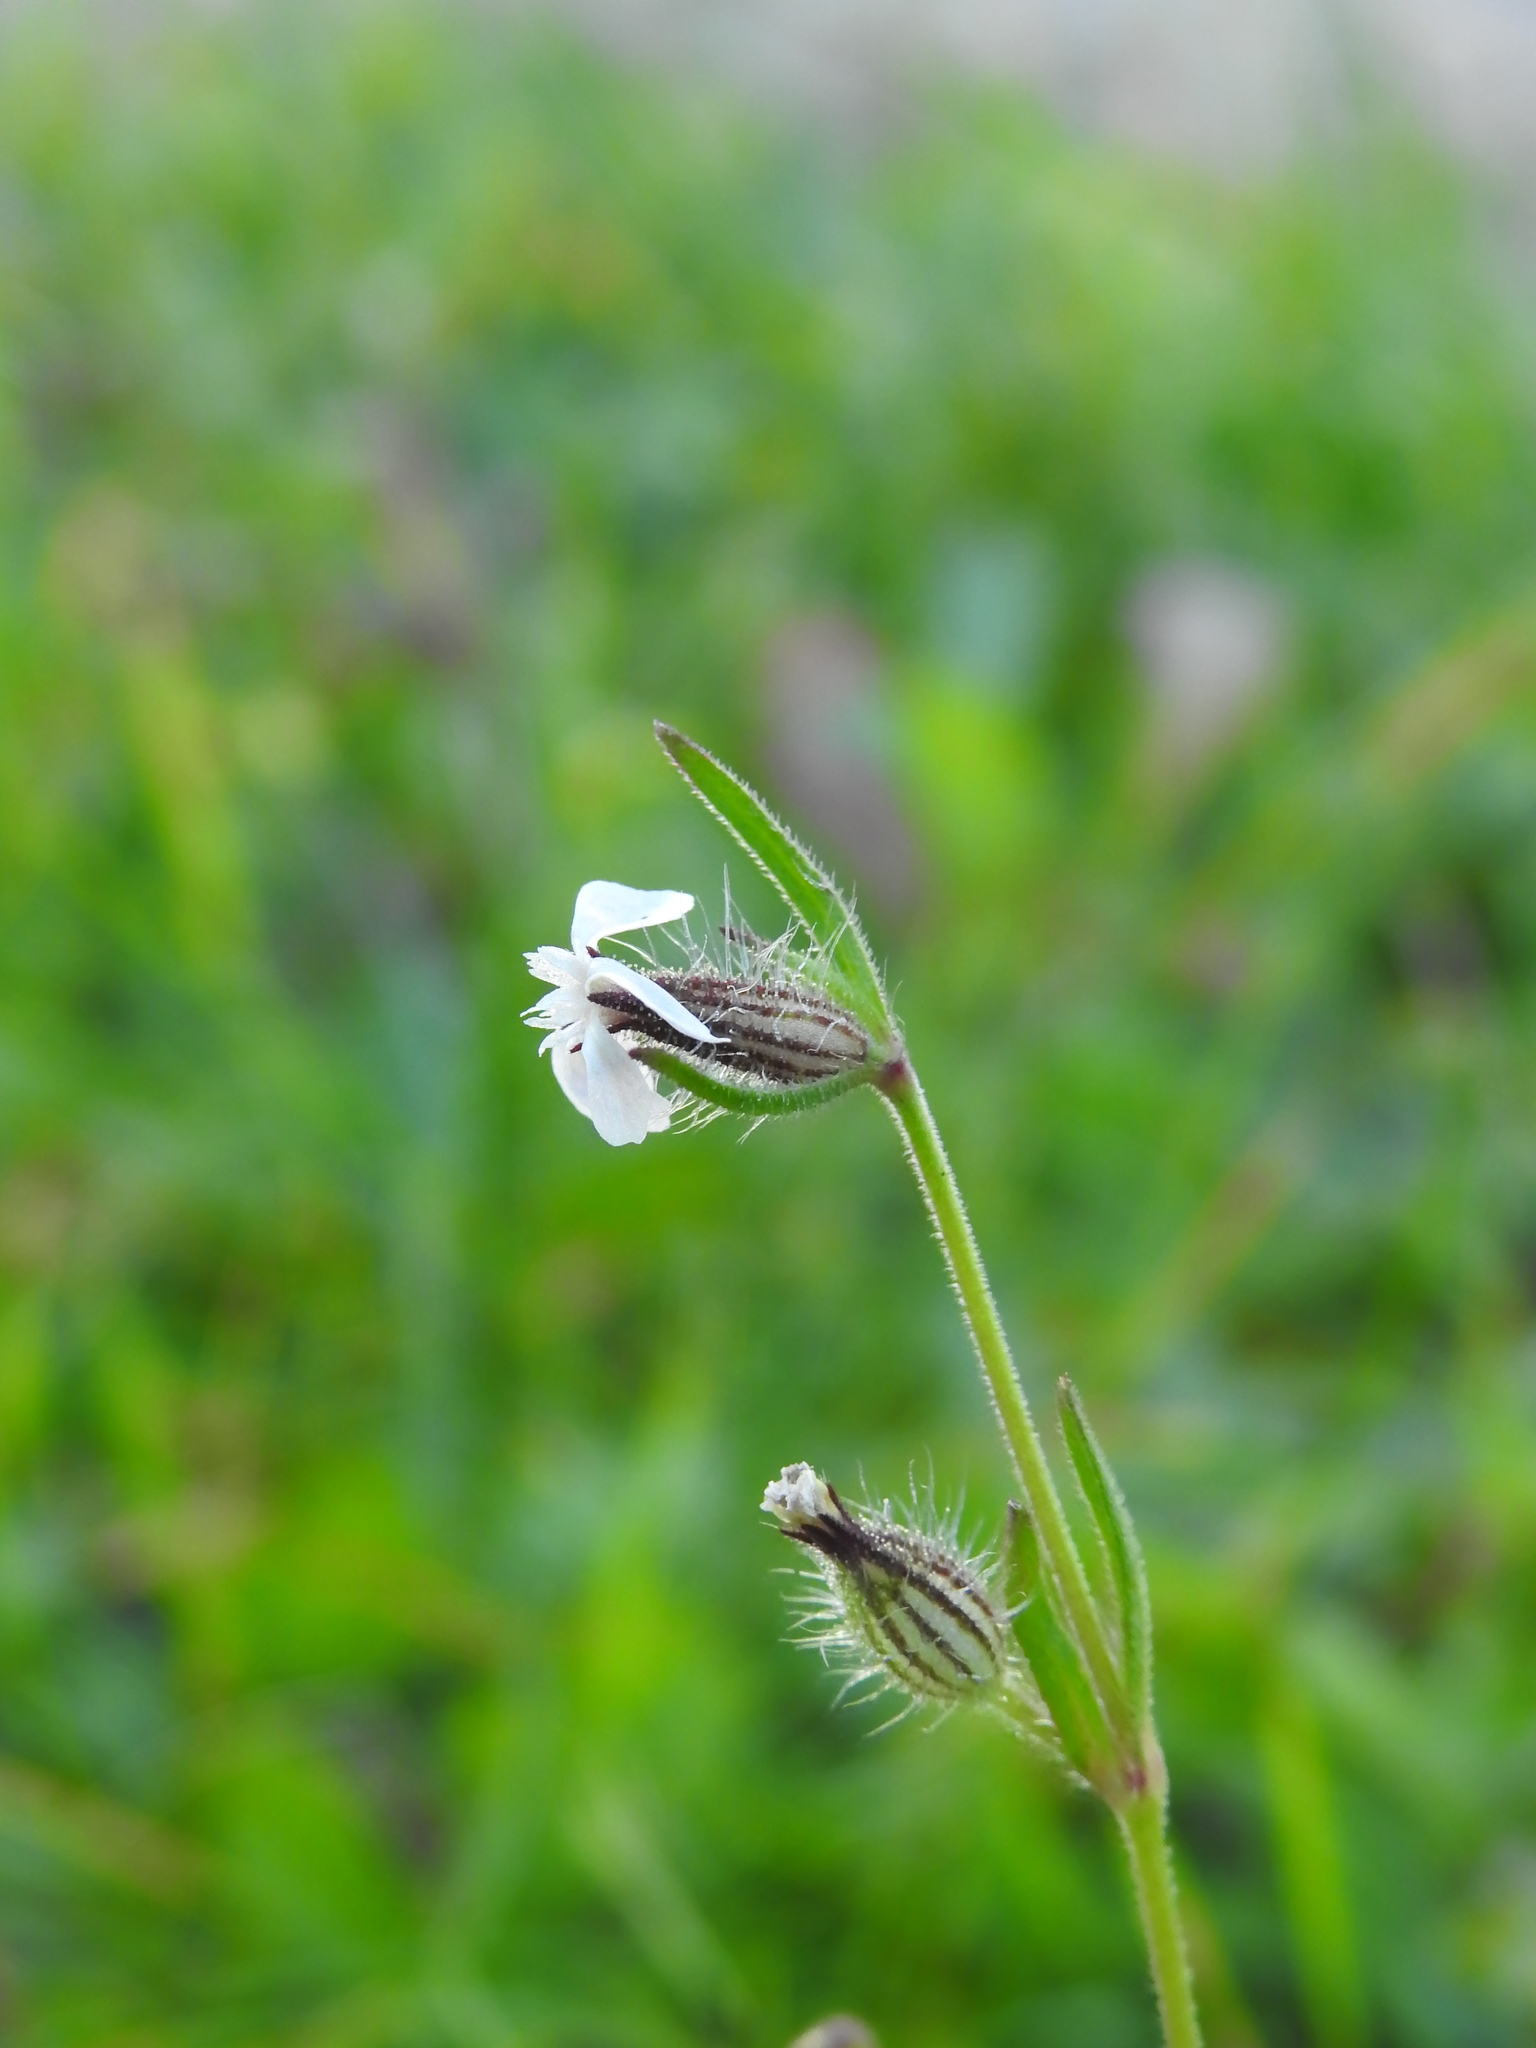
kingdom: Plantae
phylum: Tracheophyta
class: Magnoliopsida
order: Caryophyllales
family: Caryophyllaceae
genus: Silene
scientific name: Silene gallica
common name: Small-flowered catchfly
